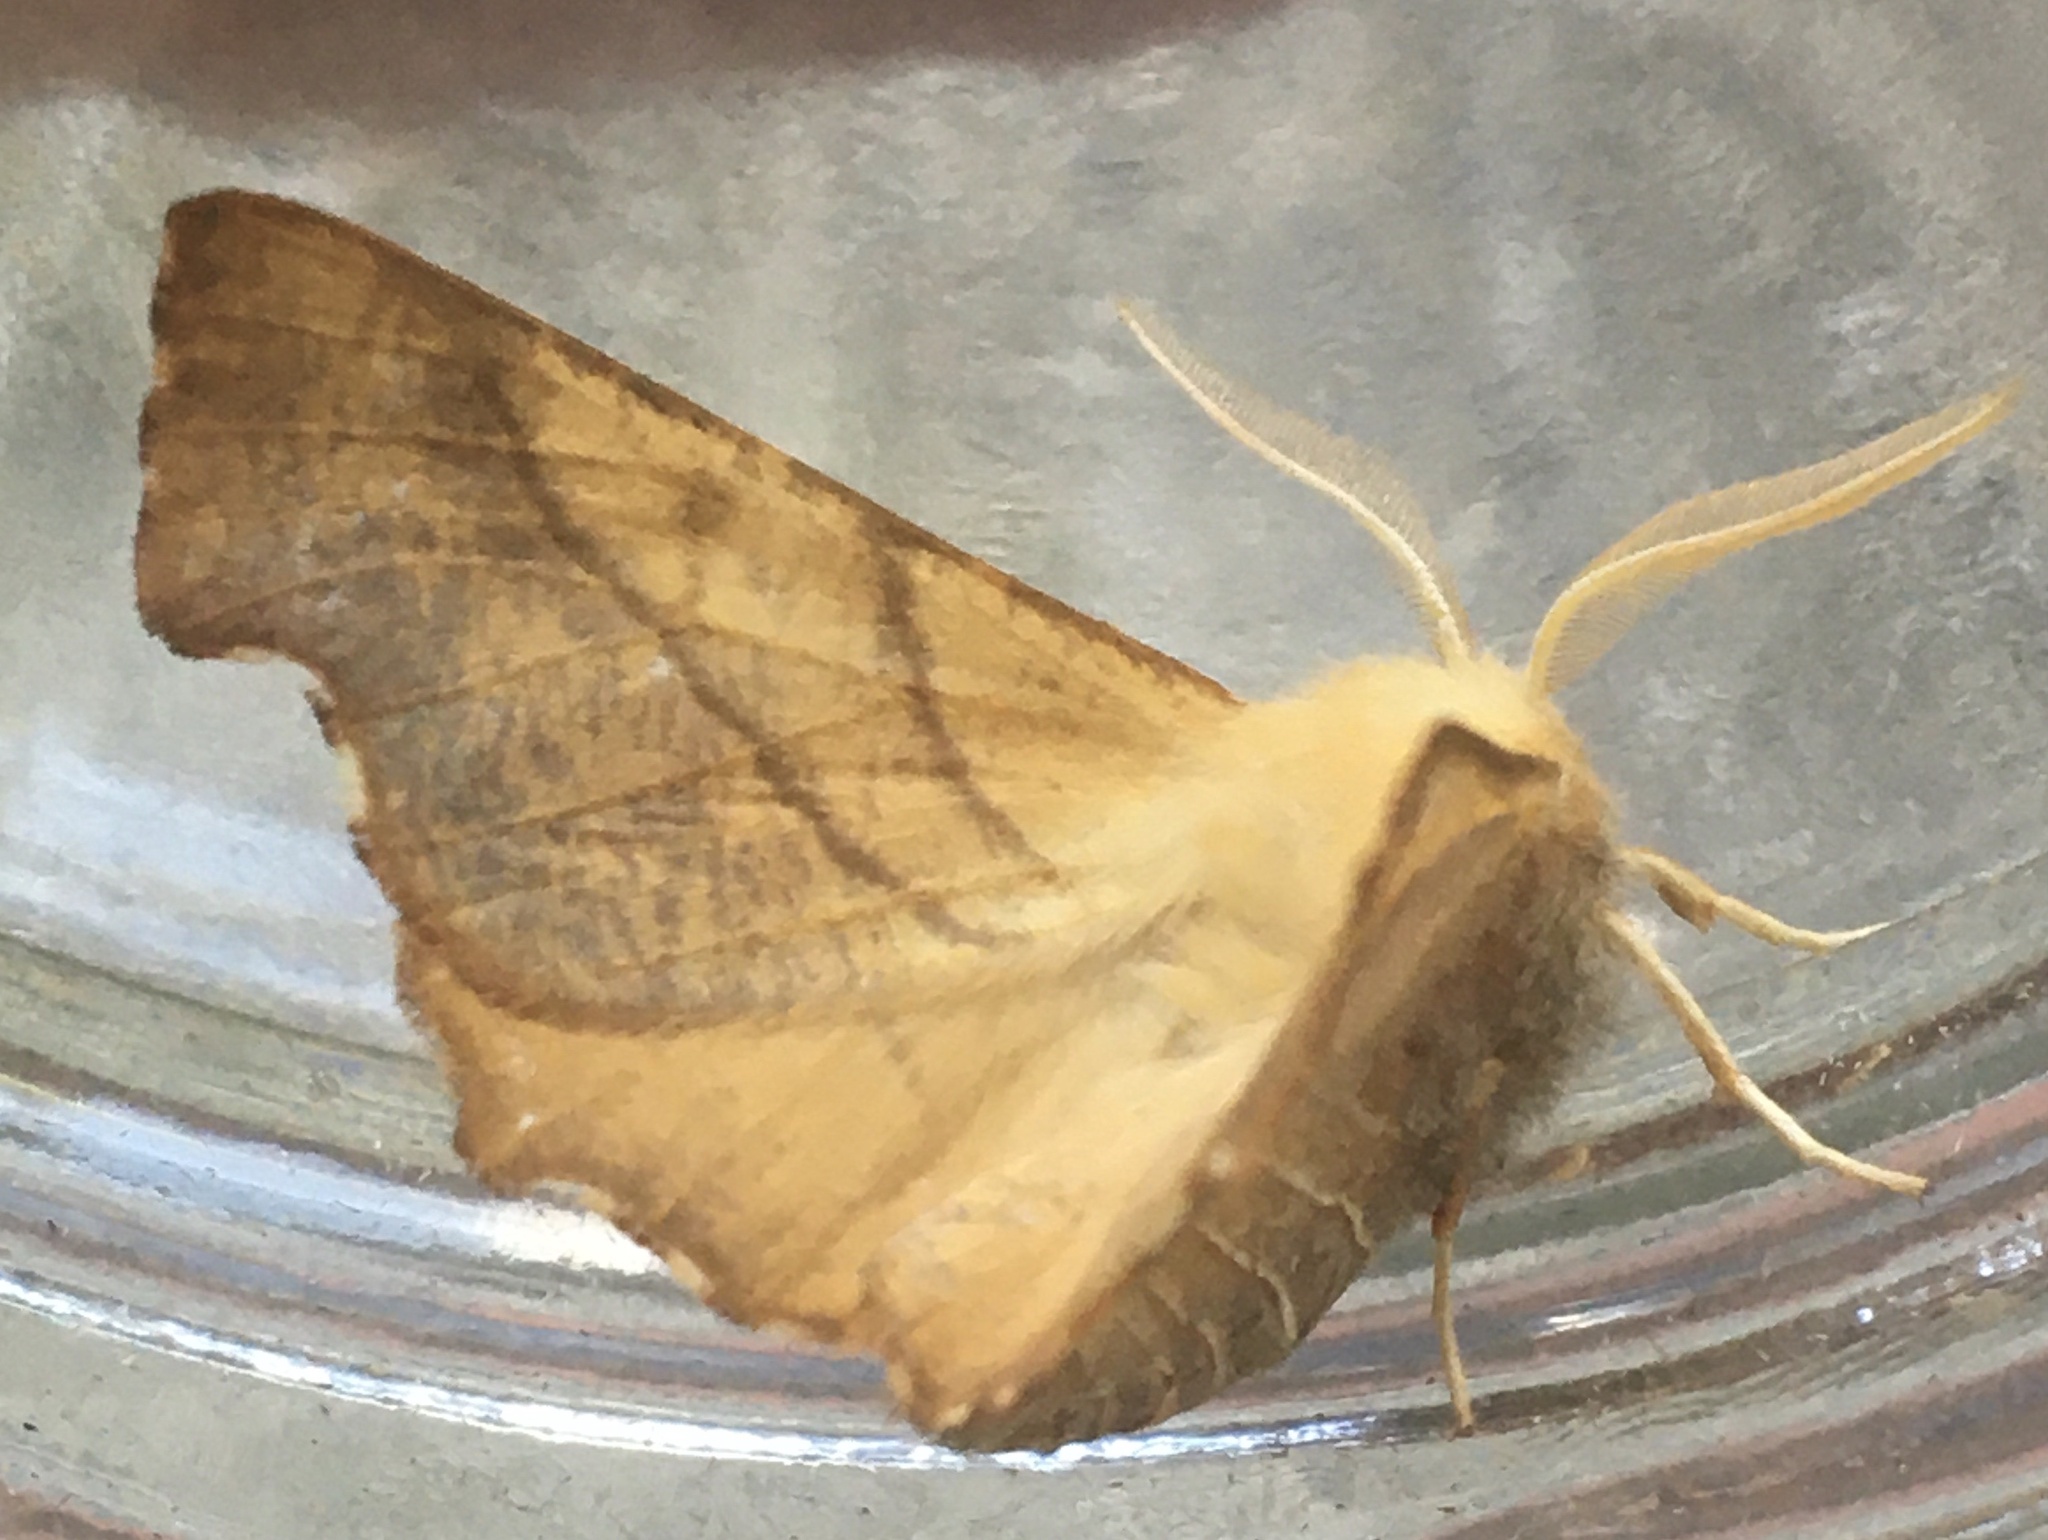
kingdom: Animalia
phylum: Arthropoda
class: Insecta
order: Lepidoptera
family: Geometridae
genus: Ennomos
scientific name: Ennomos fuscantaria
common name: Dusky thorn
